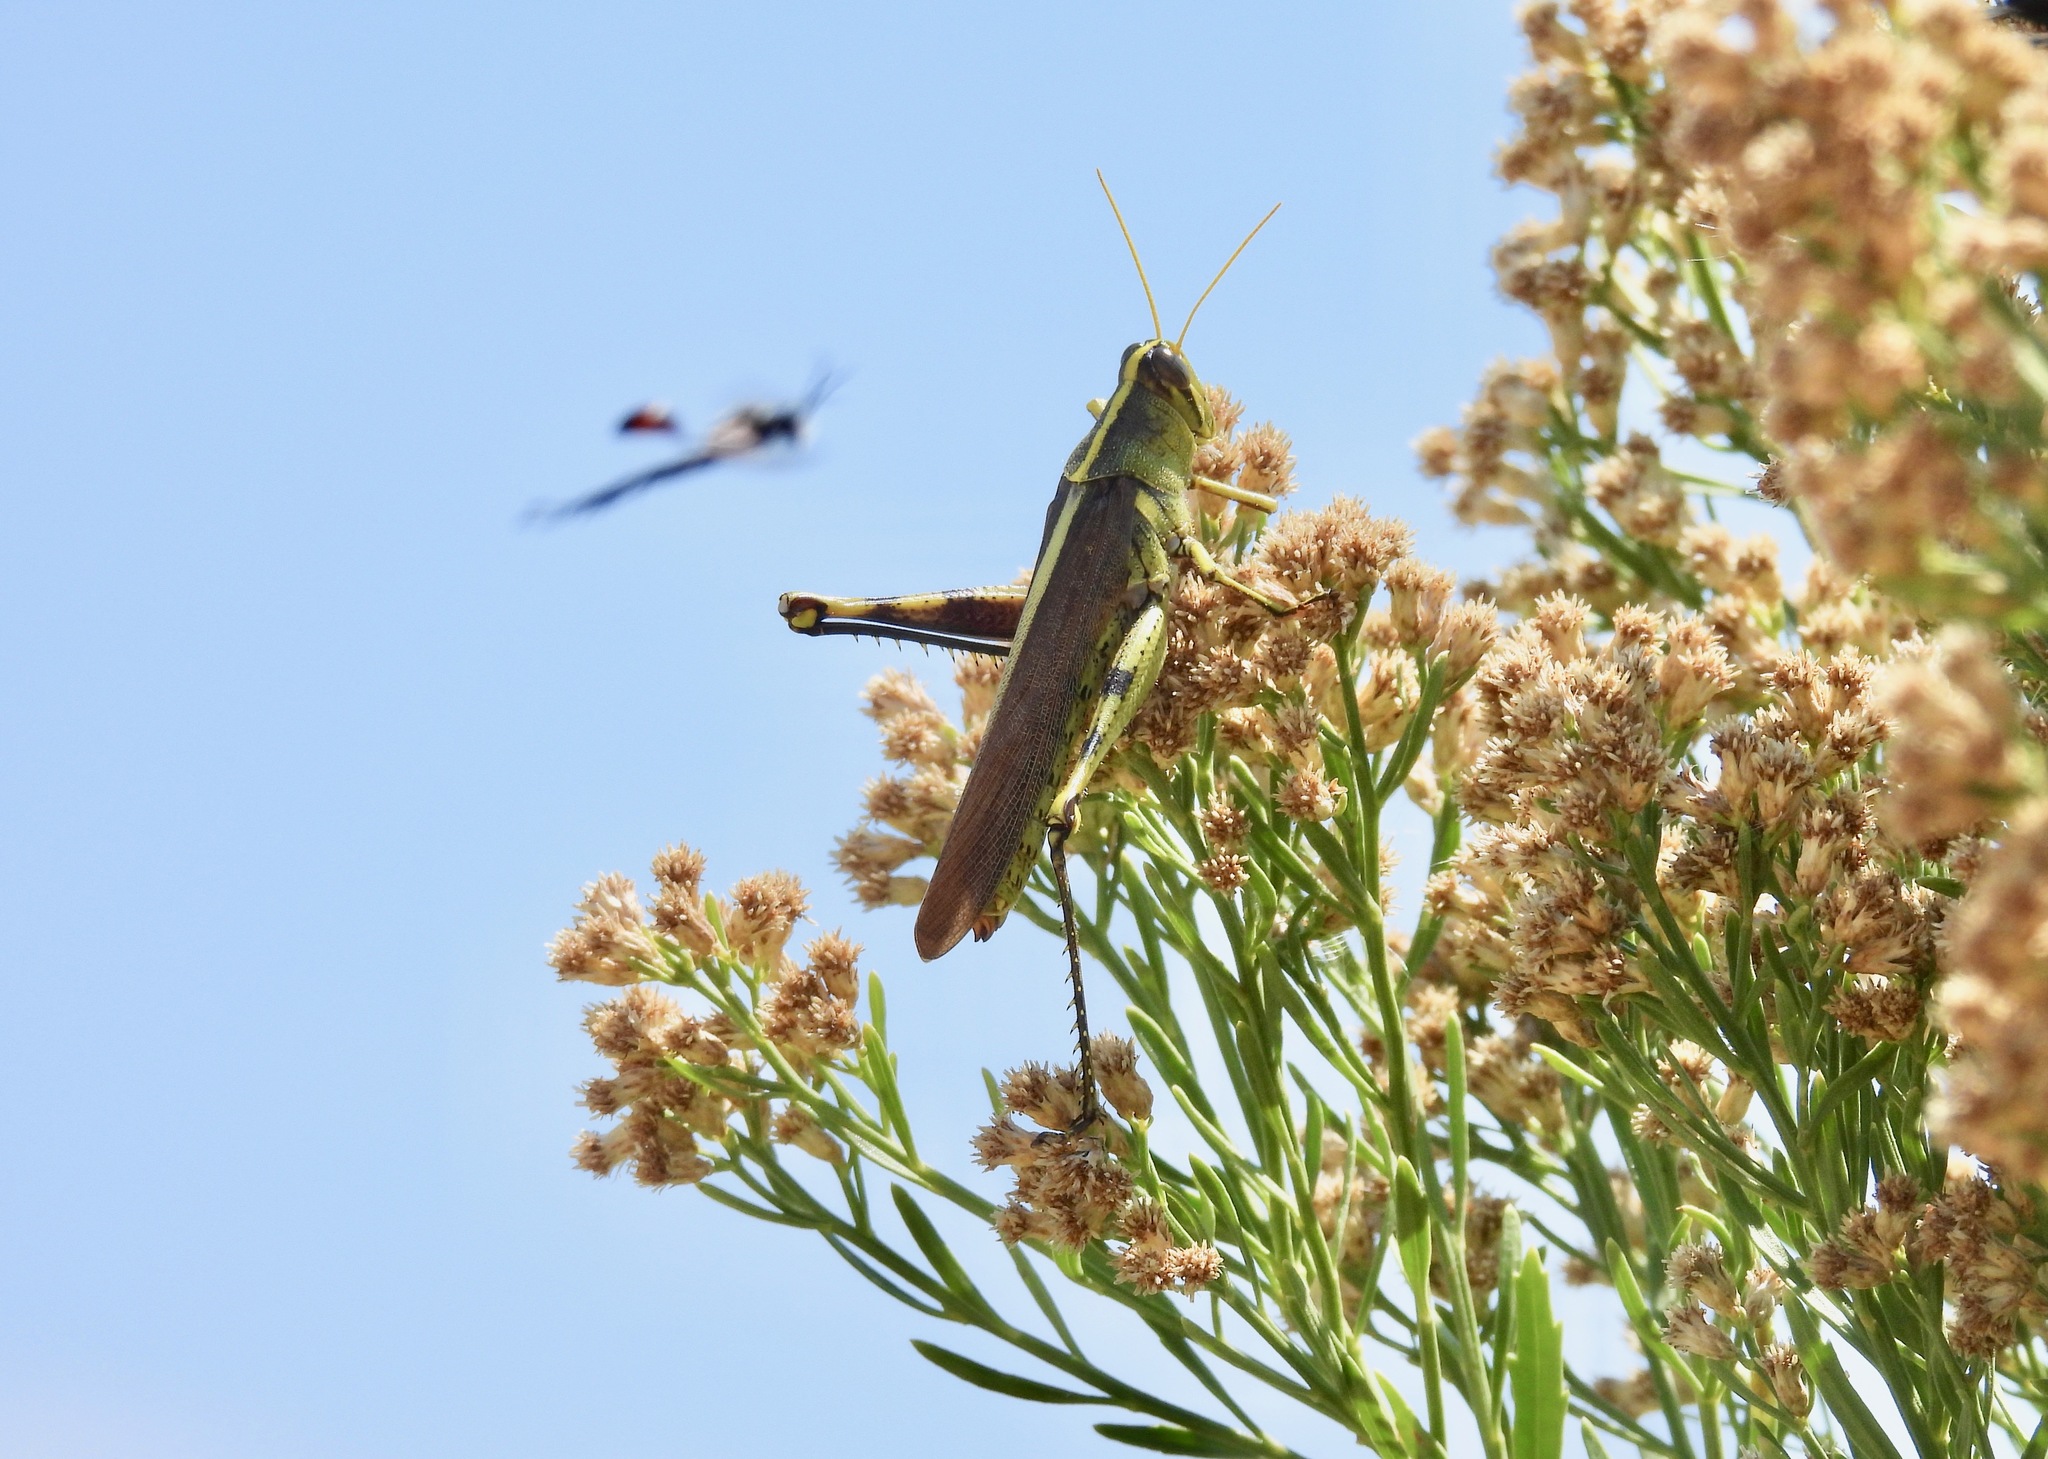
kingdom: Animalia
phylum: Arthropoda
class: Insecta
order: Orthoptera
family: Acrididae
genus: Schistocerca
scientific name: Schistocerca obscura
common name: Obscure bird grasshopper
